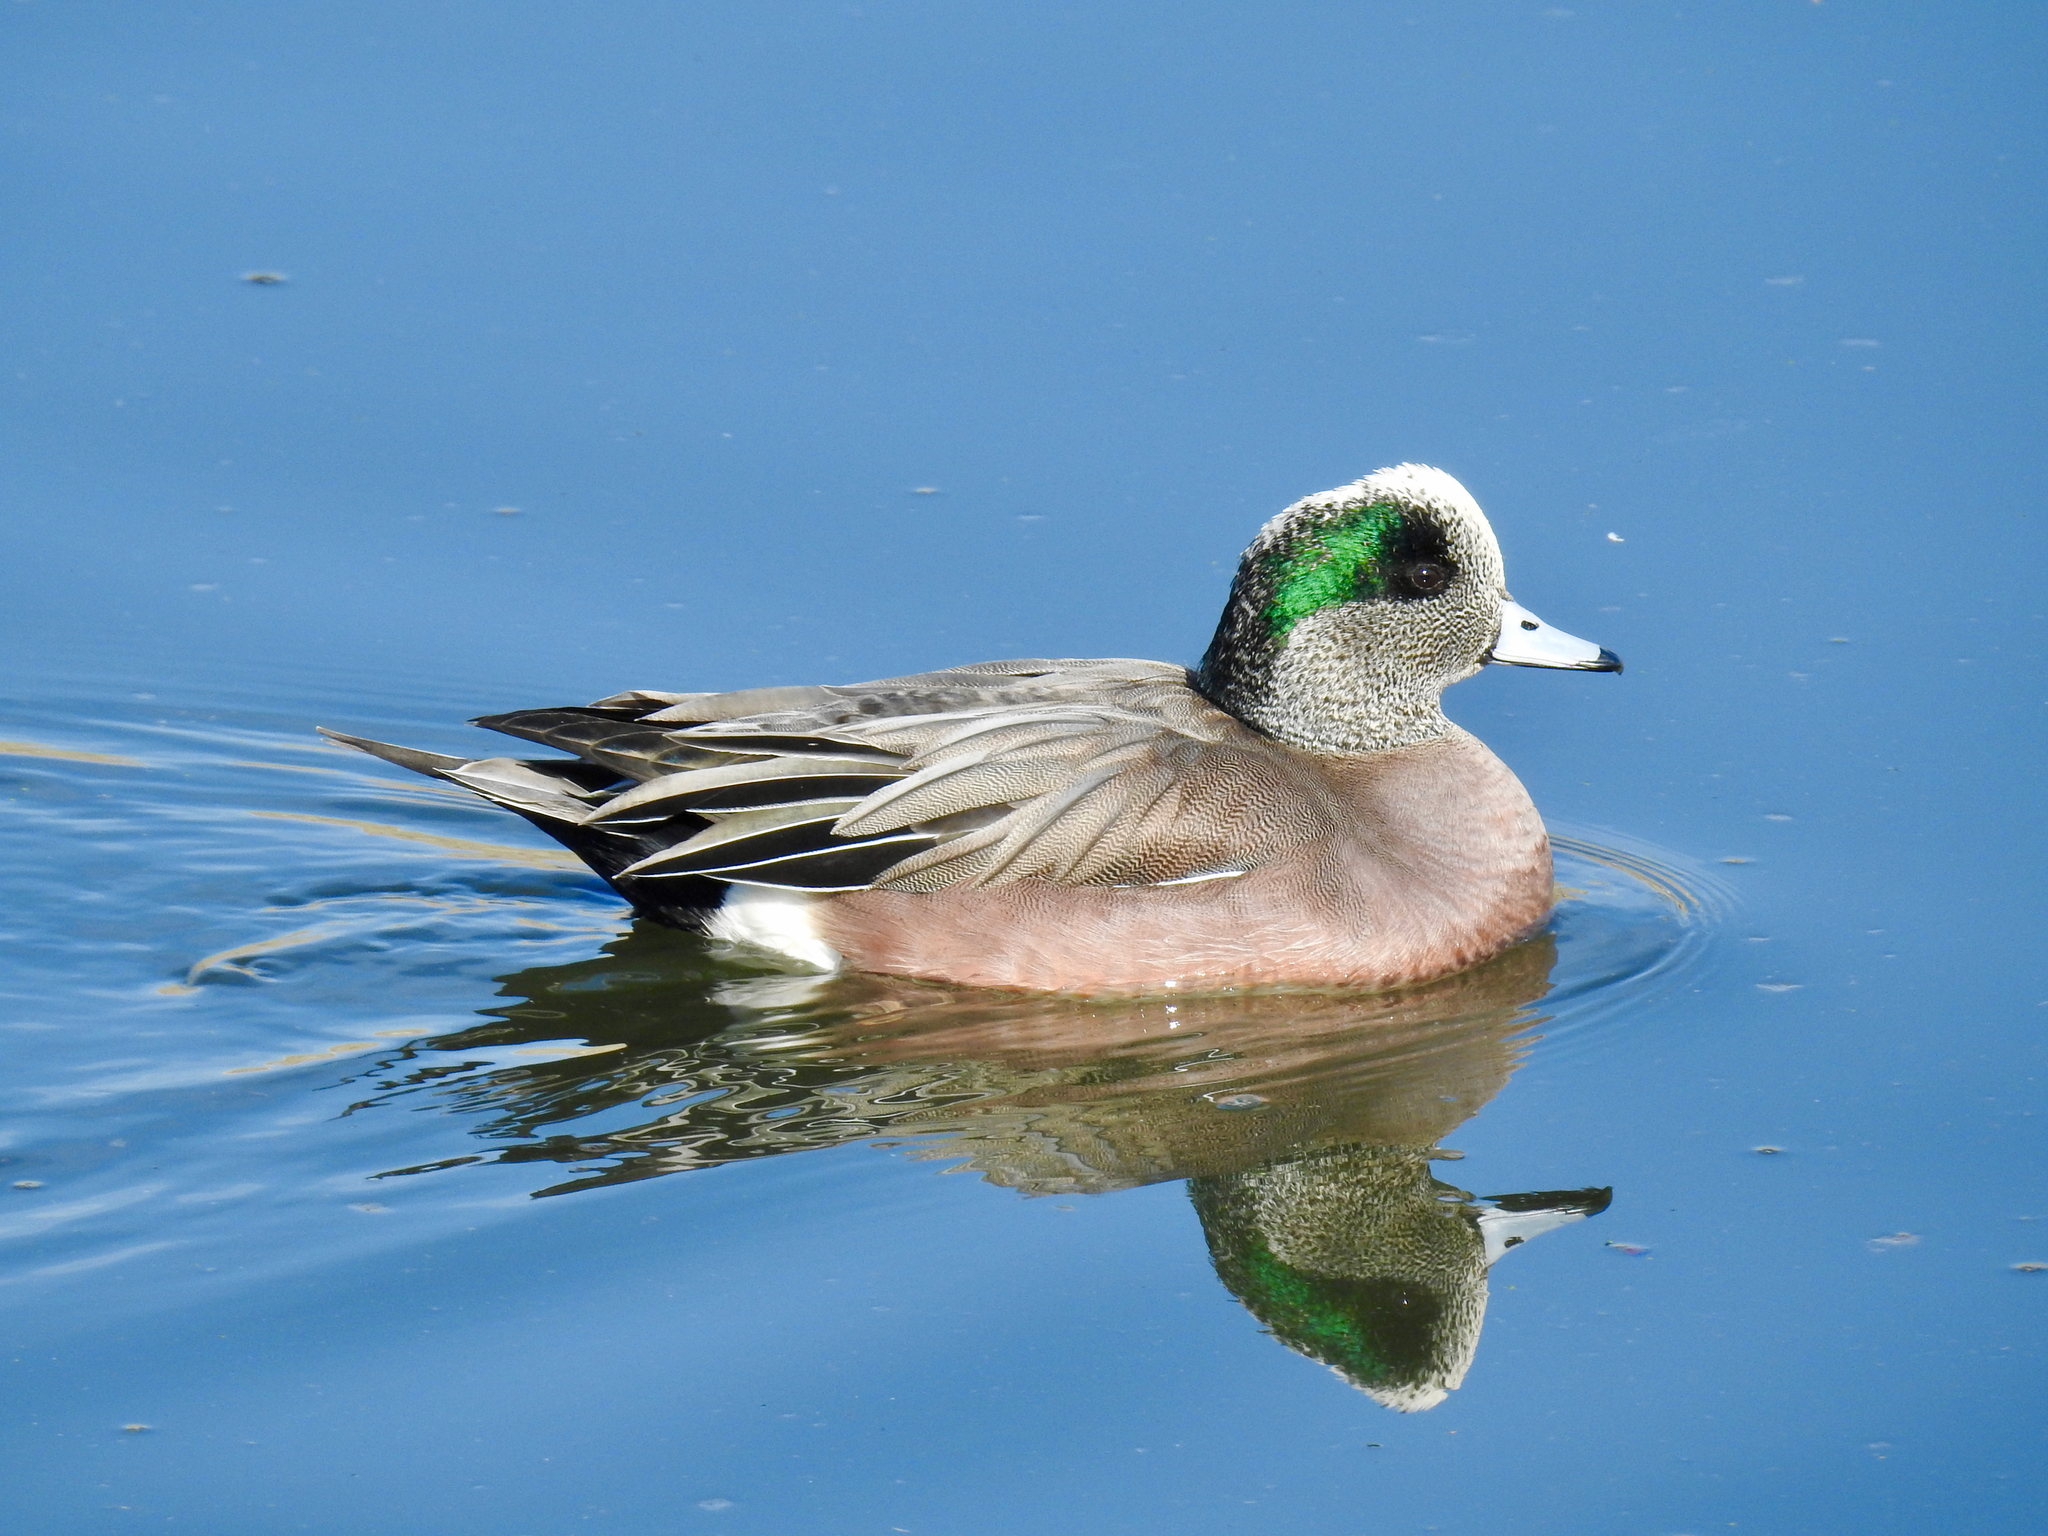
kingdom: Animalia
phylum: Chordata
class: Aves
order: Anseriformes
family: Anatidae
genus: Mareca
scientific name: Mareca americana
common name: American wigeon
